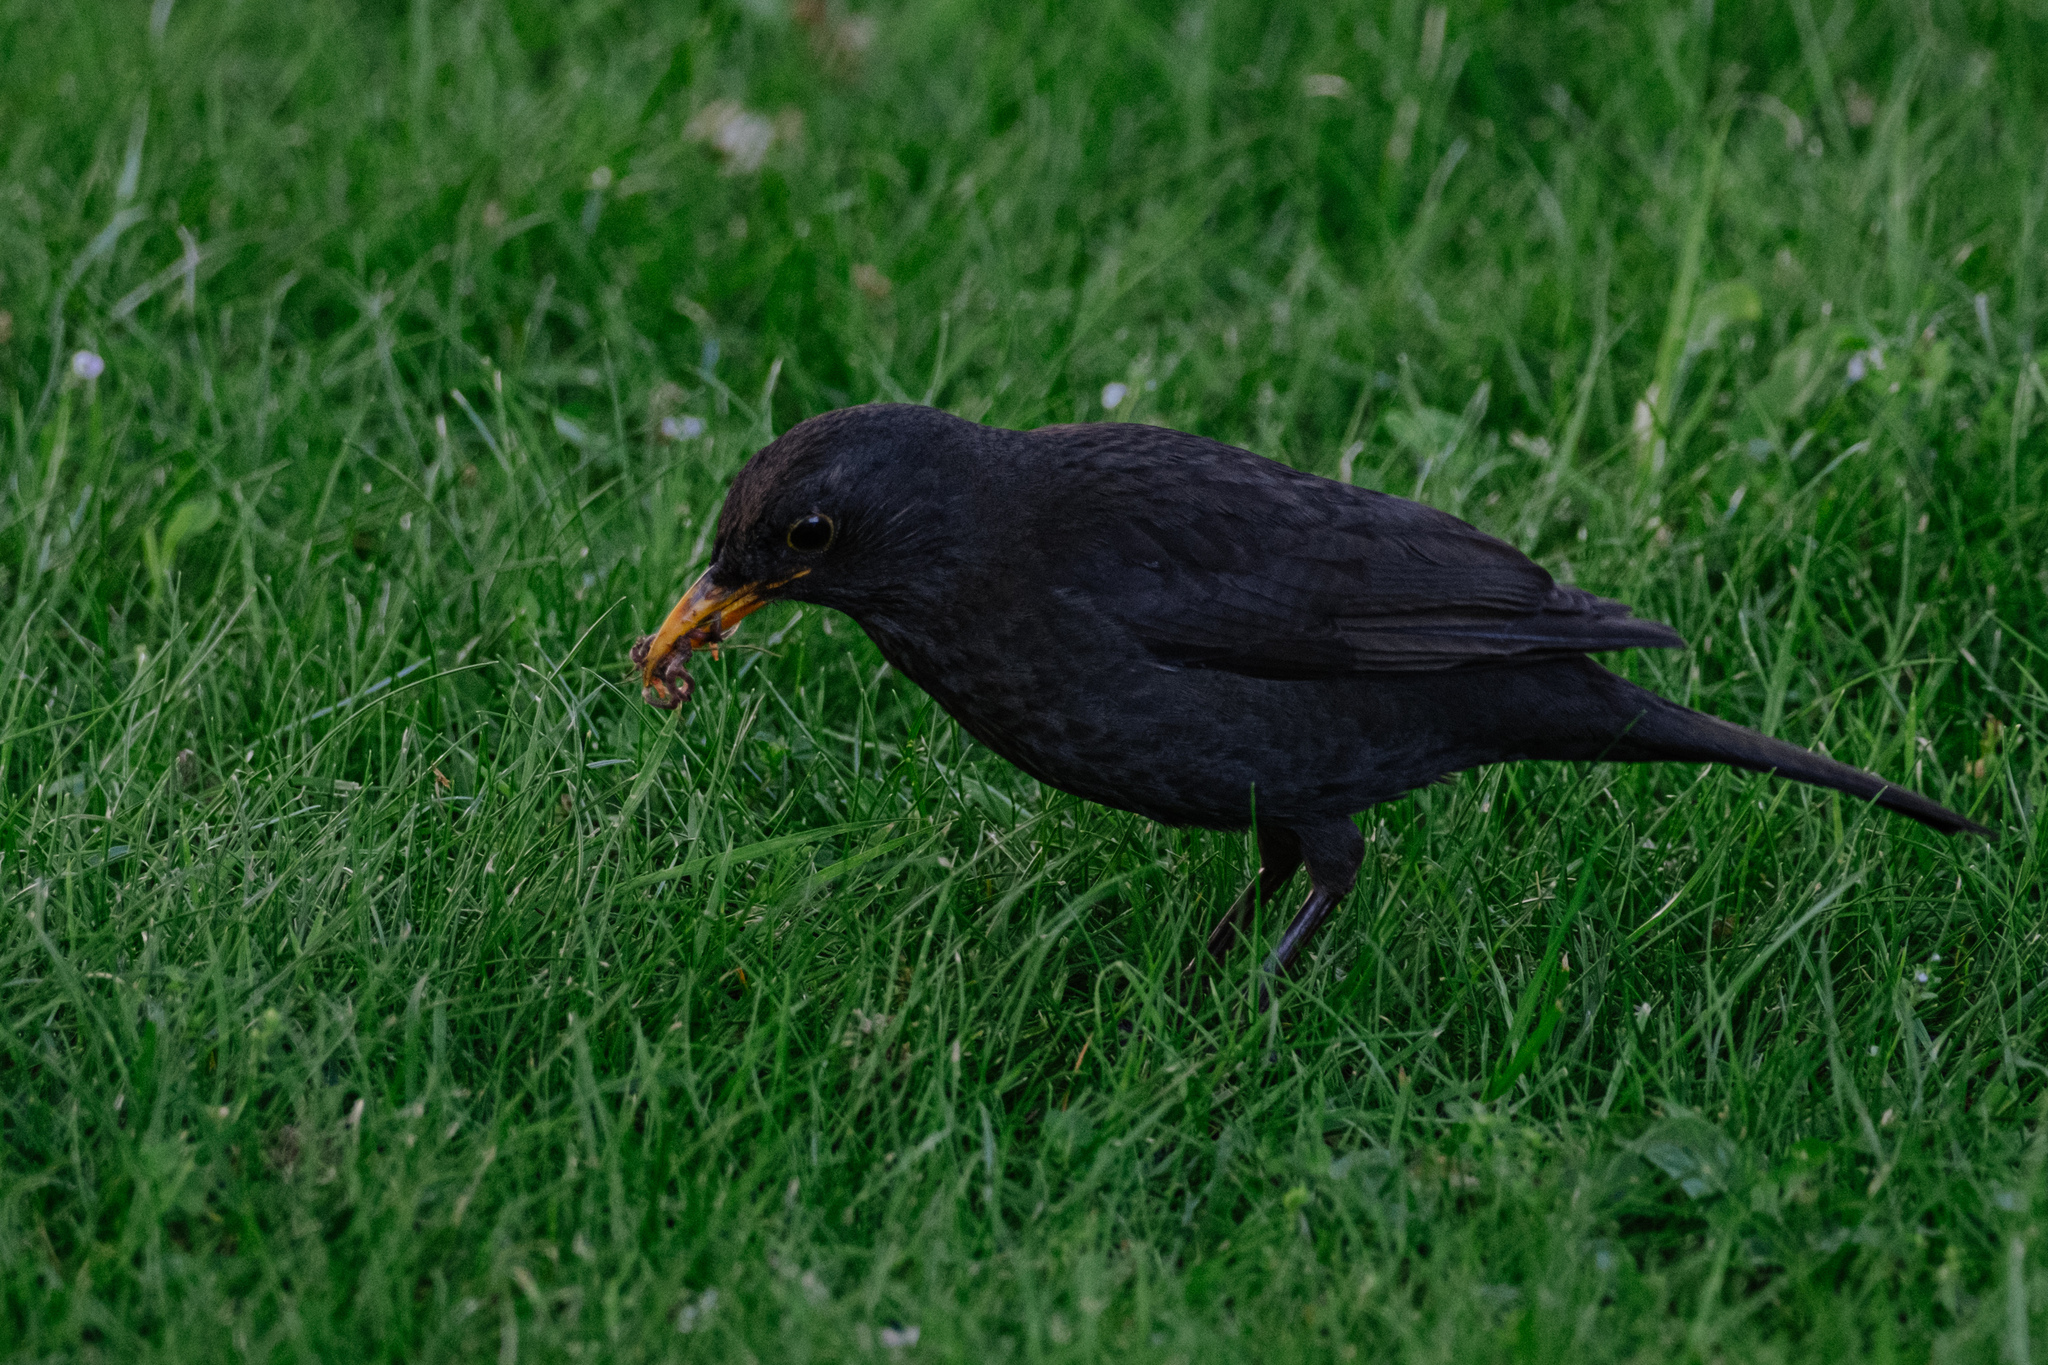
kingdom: Animalia
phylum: Chordata
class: Aves
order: Passeriformes
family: Turdidae
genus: Turdus
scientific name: Turdus merula
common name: Common blackbird
